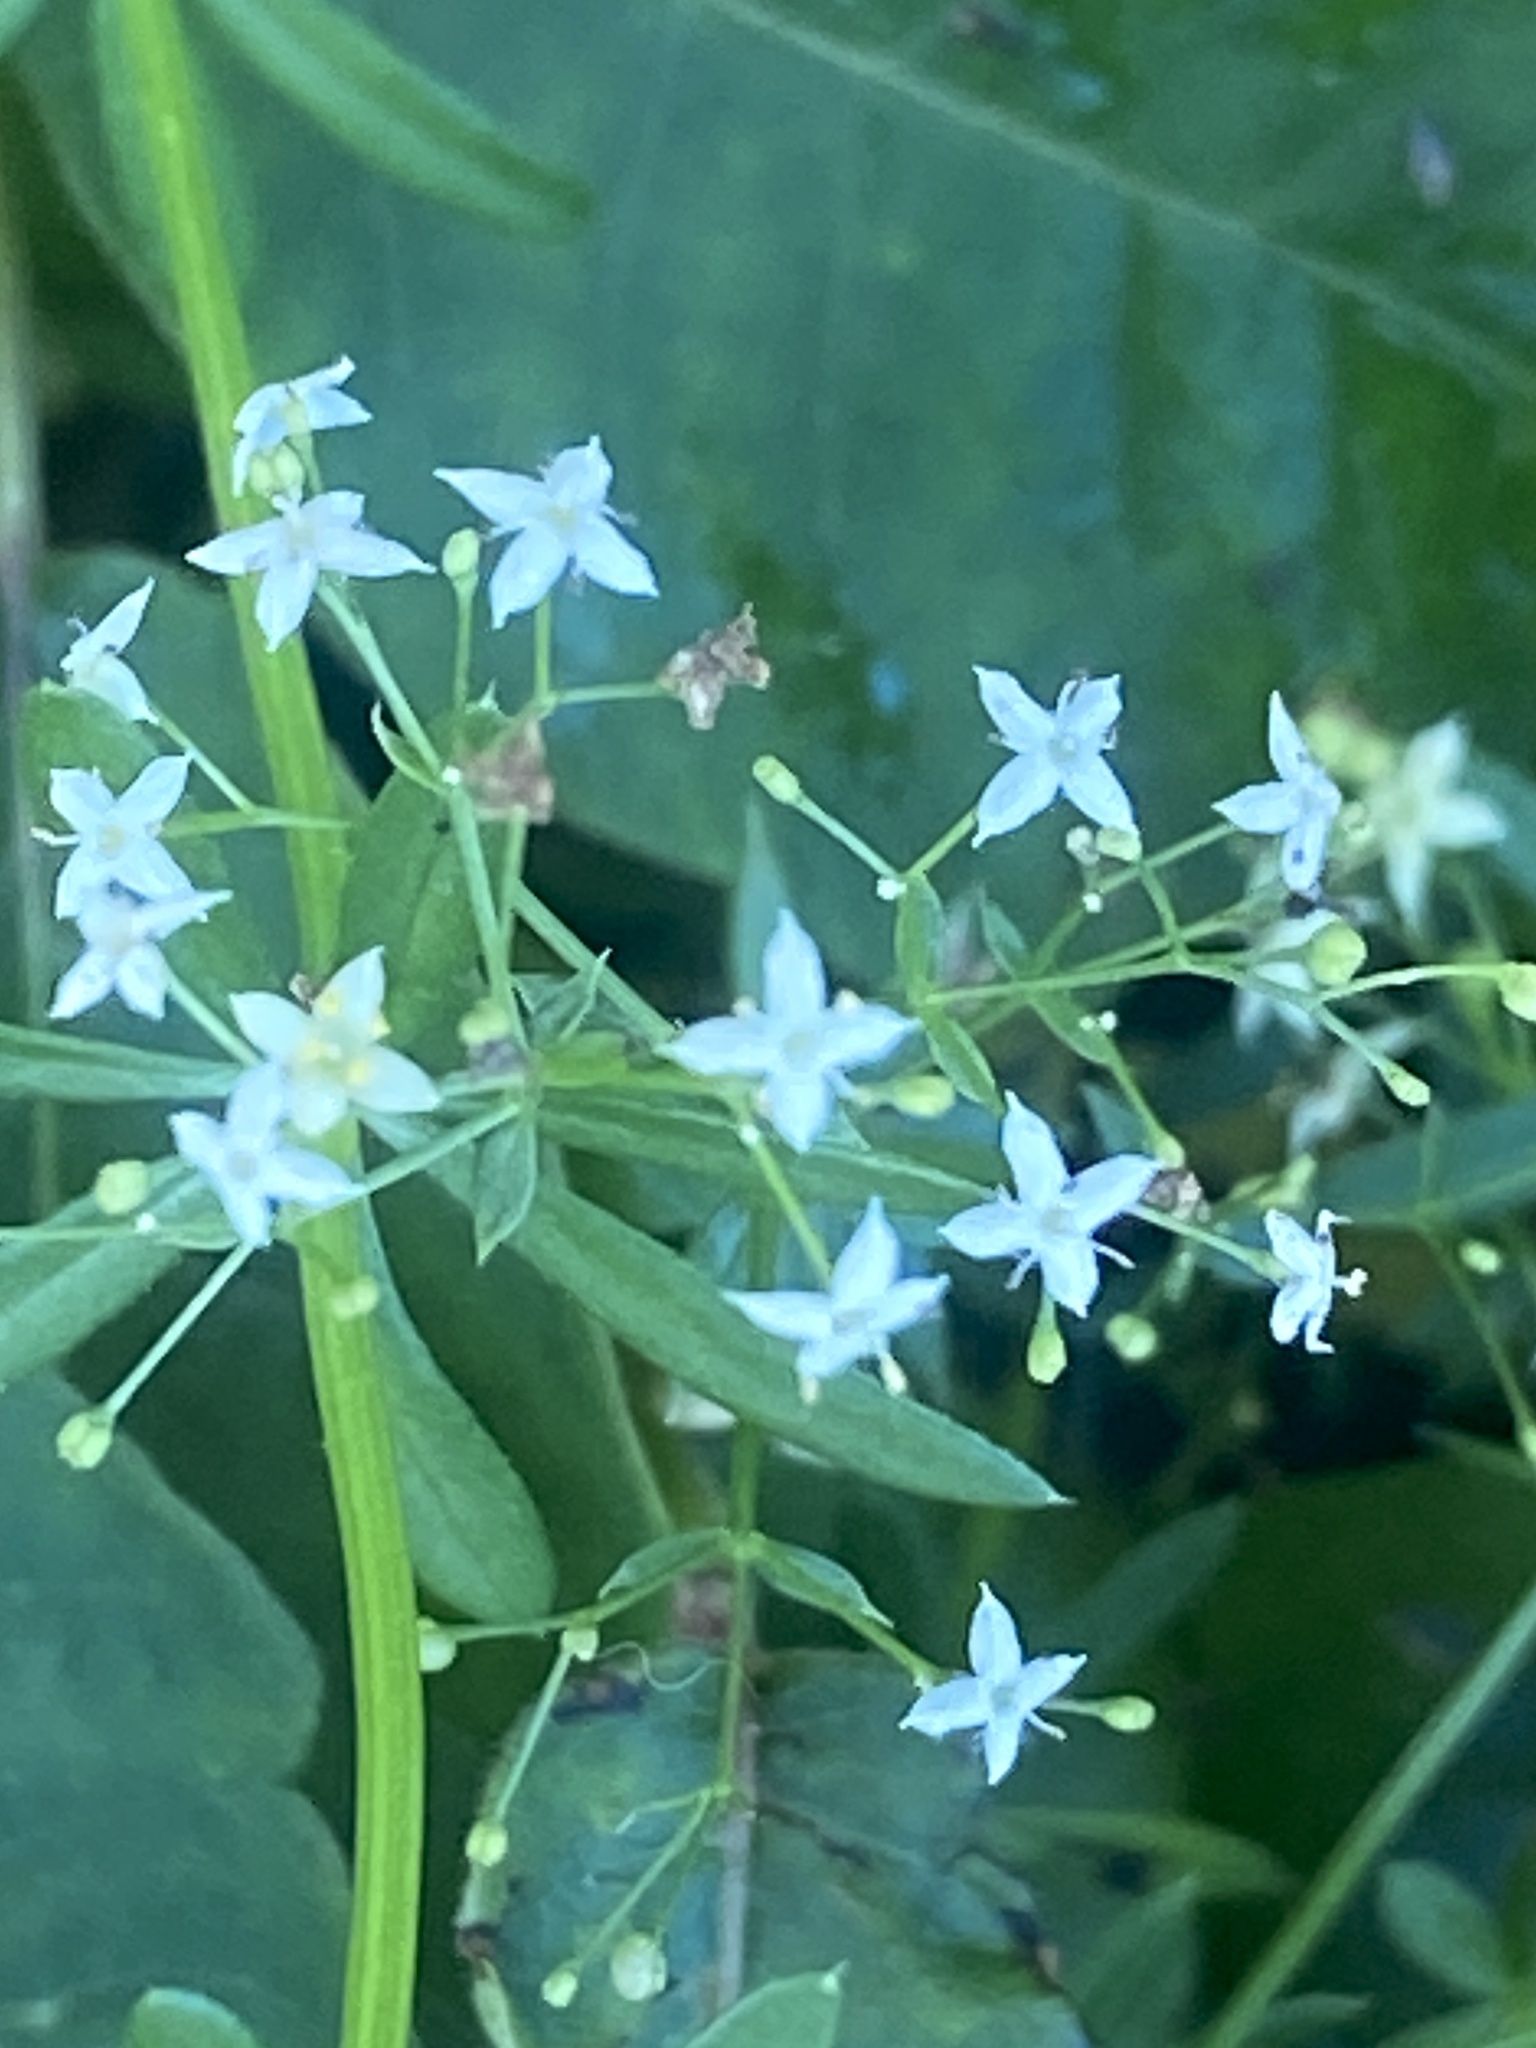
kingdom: Plantae
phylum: Tracheophyta
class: Magnoliopsida
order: Gentianales
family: Rubiaceae
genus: Galium
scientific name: Galium mollugo
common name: Hedge bedstraw
